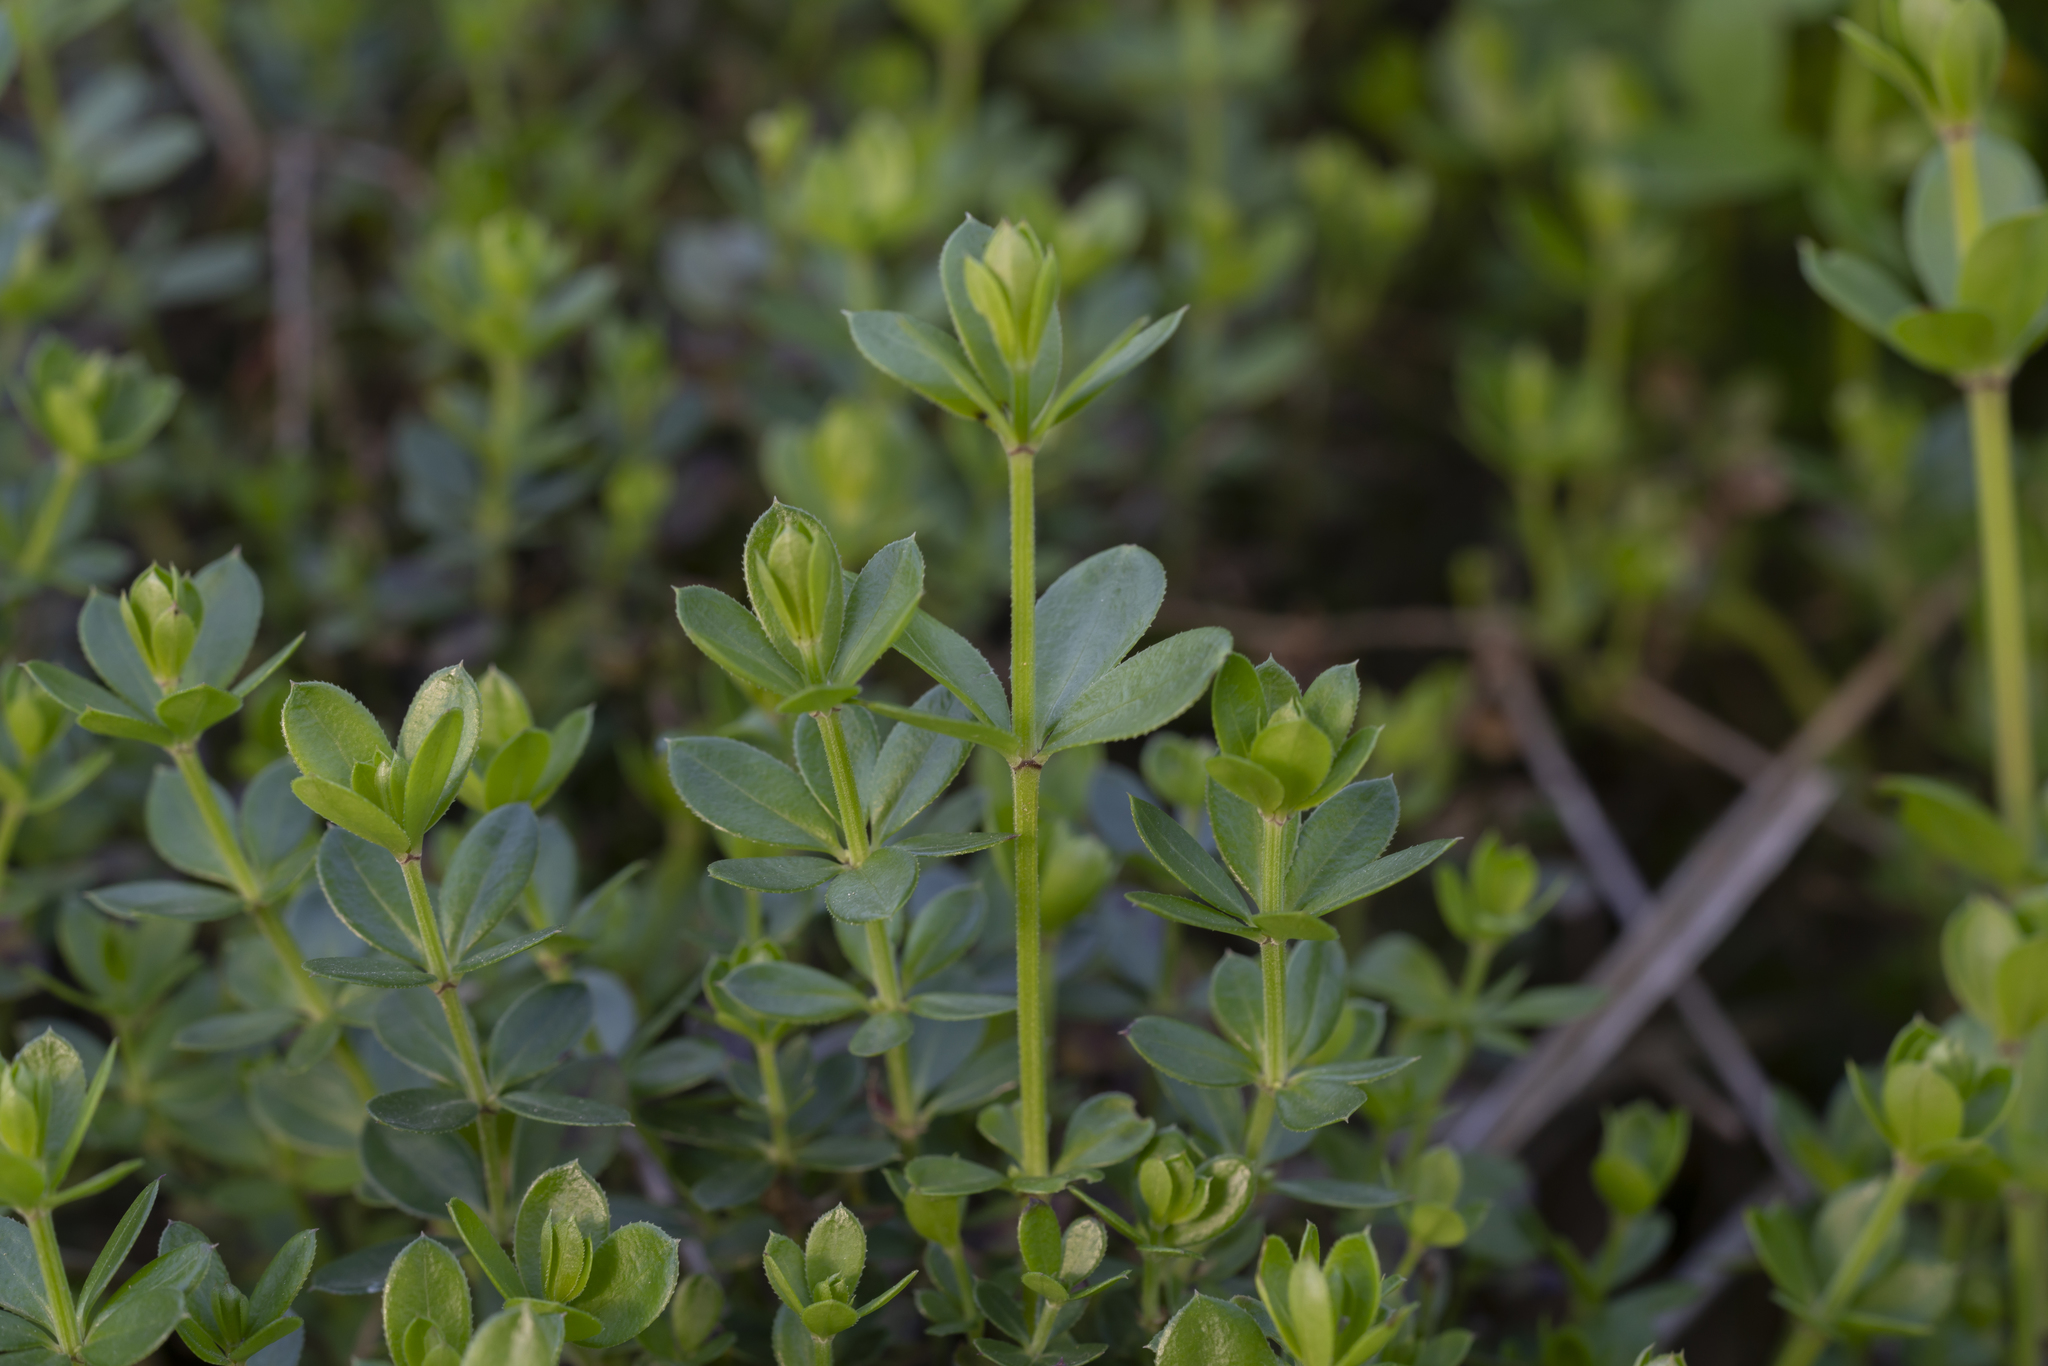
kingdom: Plantae
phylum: Tracheophyta
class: Magnoliopsida
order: Gentianales
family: Rubiaceae
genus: Rubia
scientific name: Rubia tenuifolia
